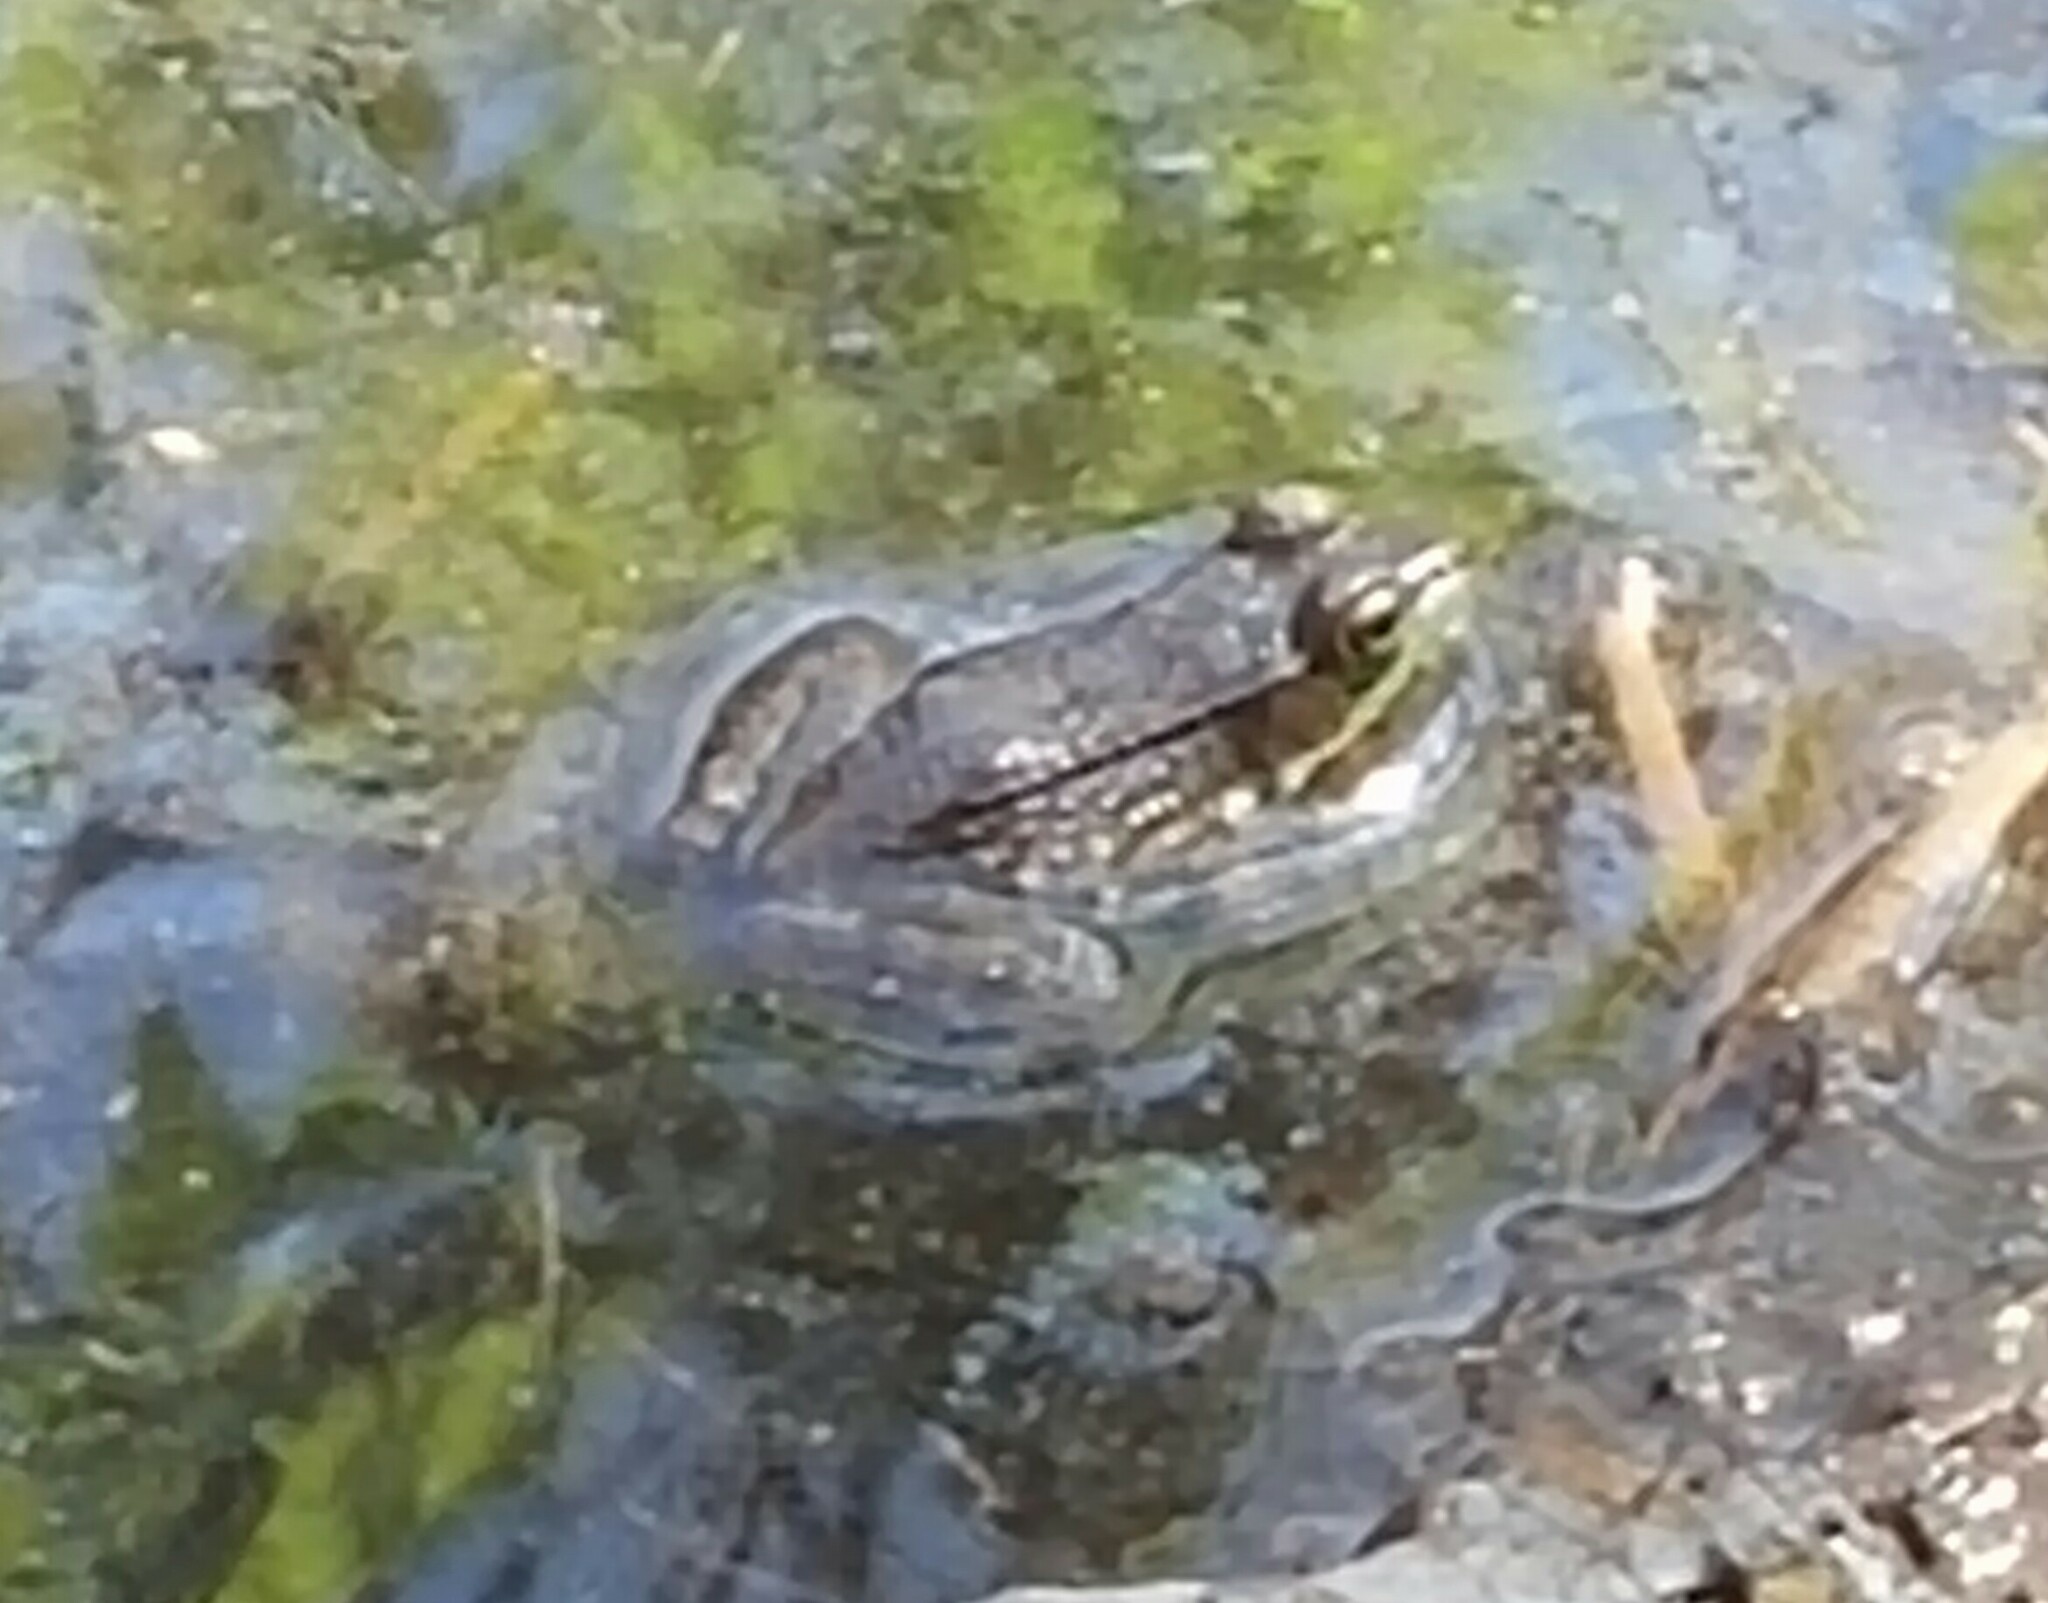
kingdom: Animalia
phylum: Chordata
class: Amphibia
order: Anura
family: Ranidae
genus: Lithobates
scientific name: Lithobates clamitans
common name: Green frog
